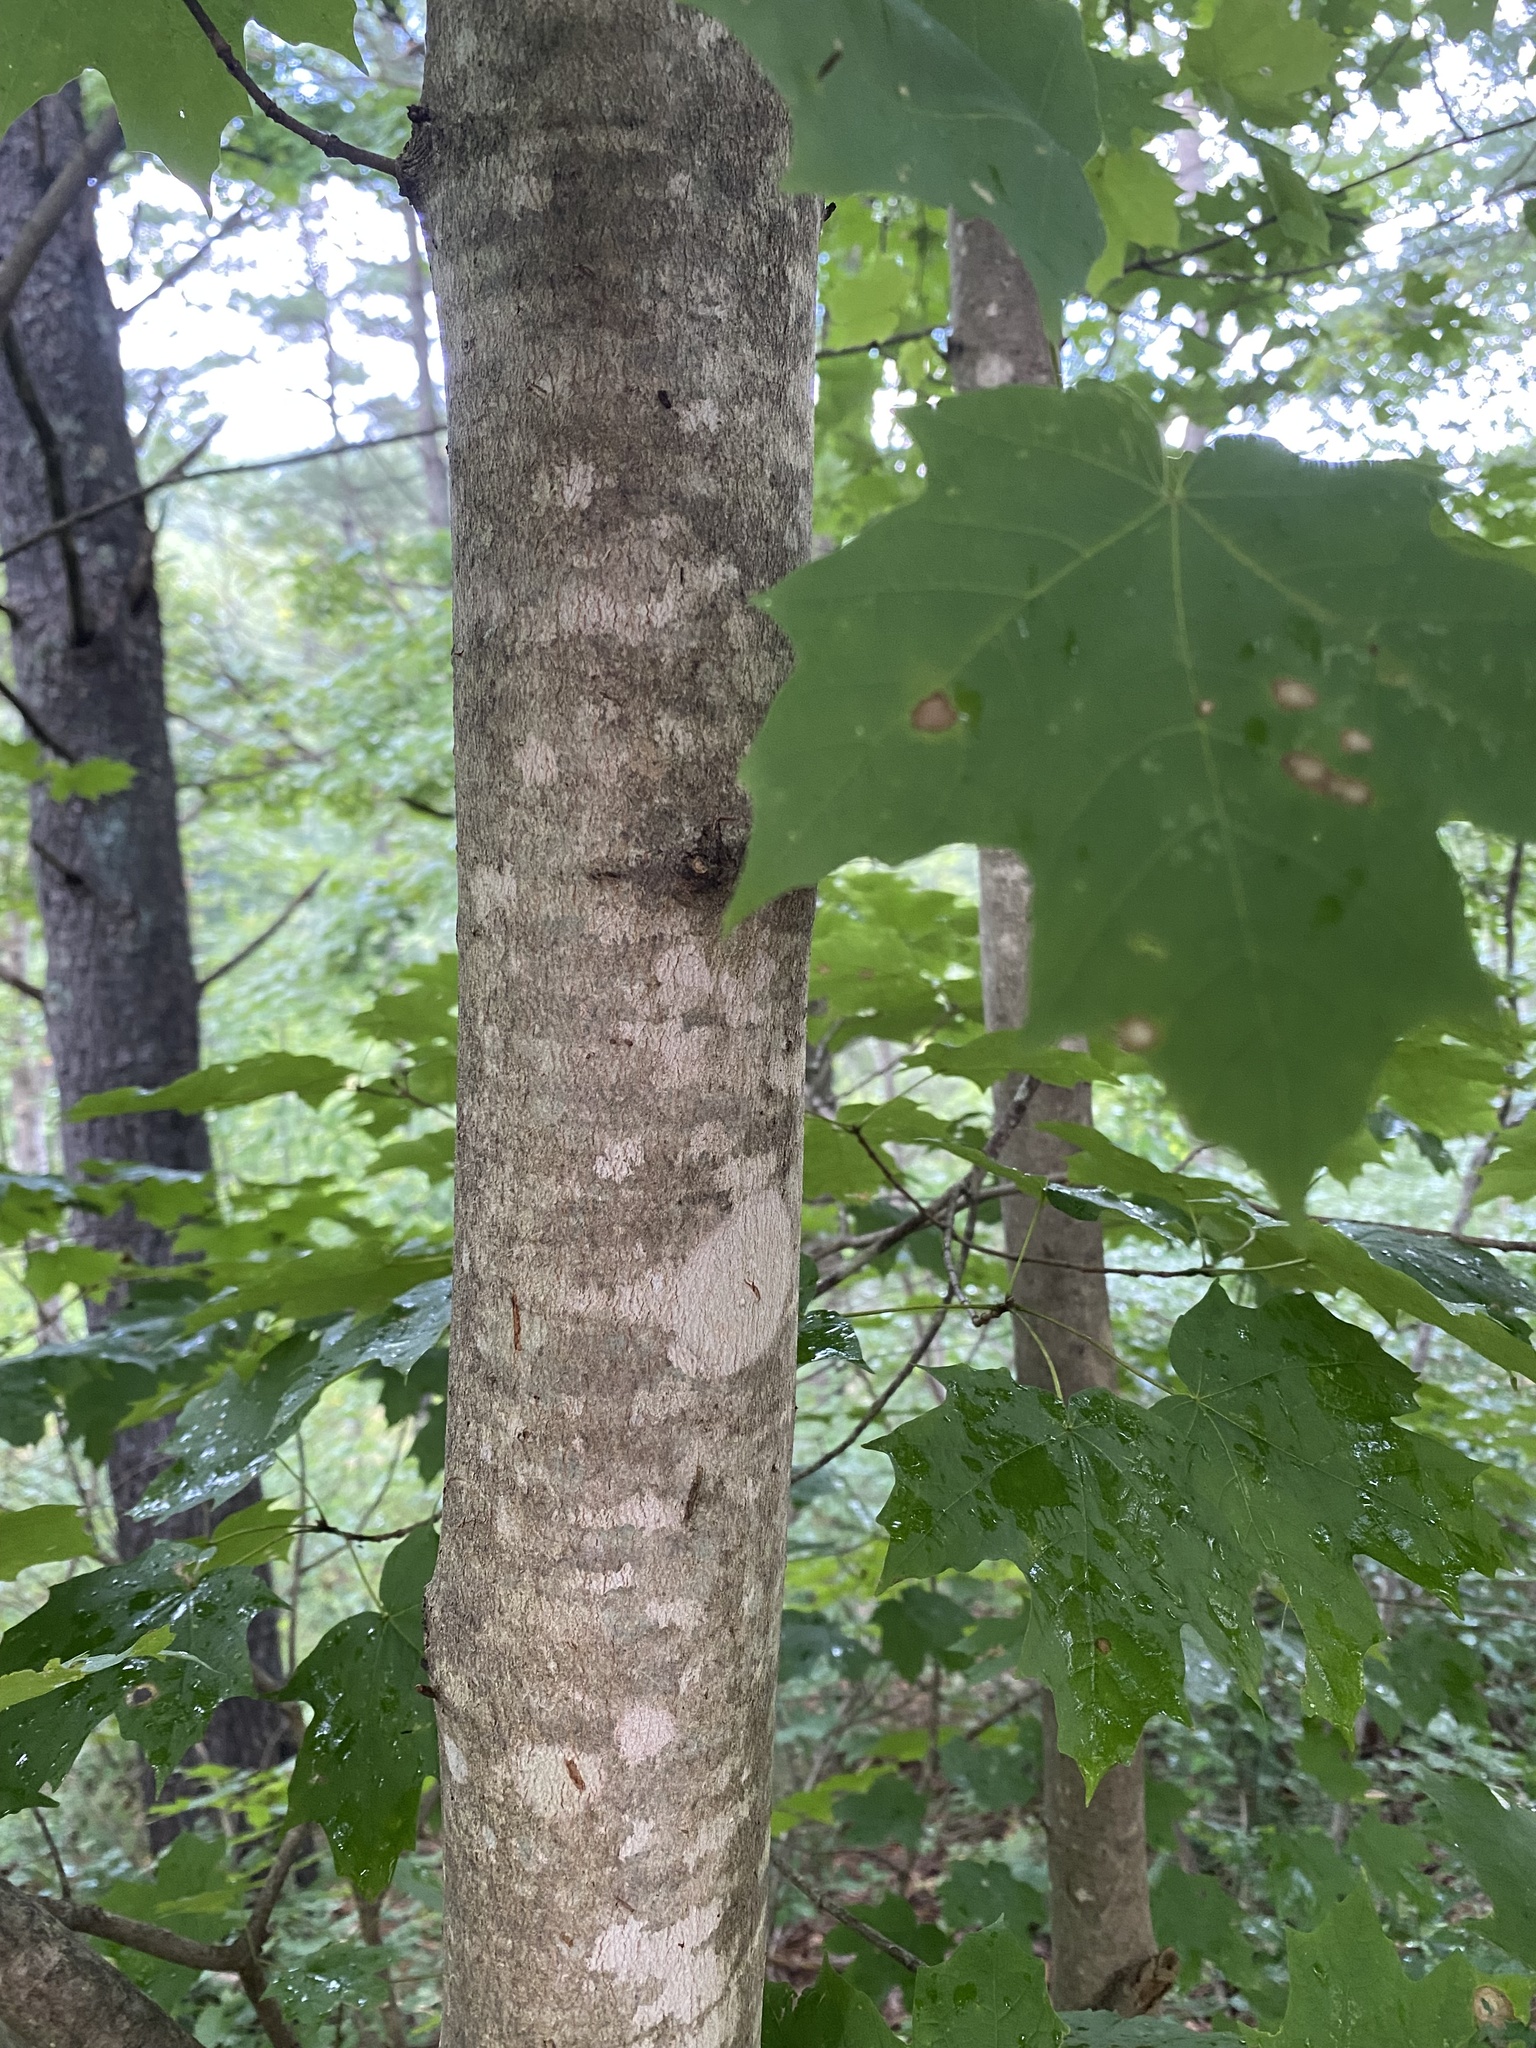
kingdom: Plantae
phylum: Tracheophyta
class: Magnoliopsida
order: Sapindales
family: Sapindaceae
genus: Acer
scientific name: Acer saccharum
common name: Sugar maple
